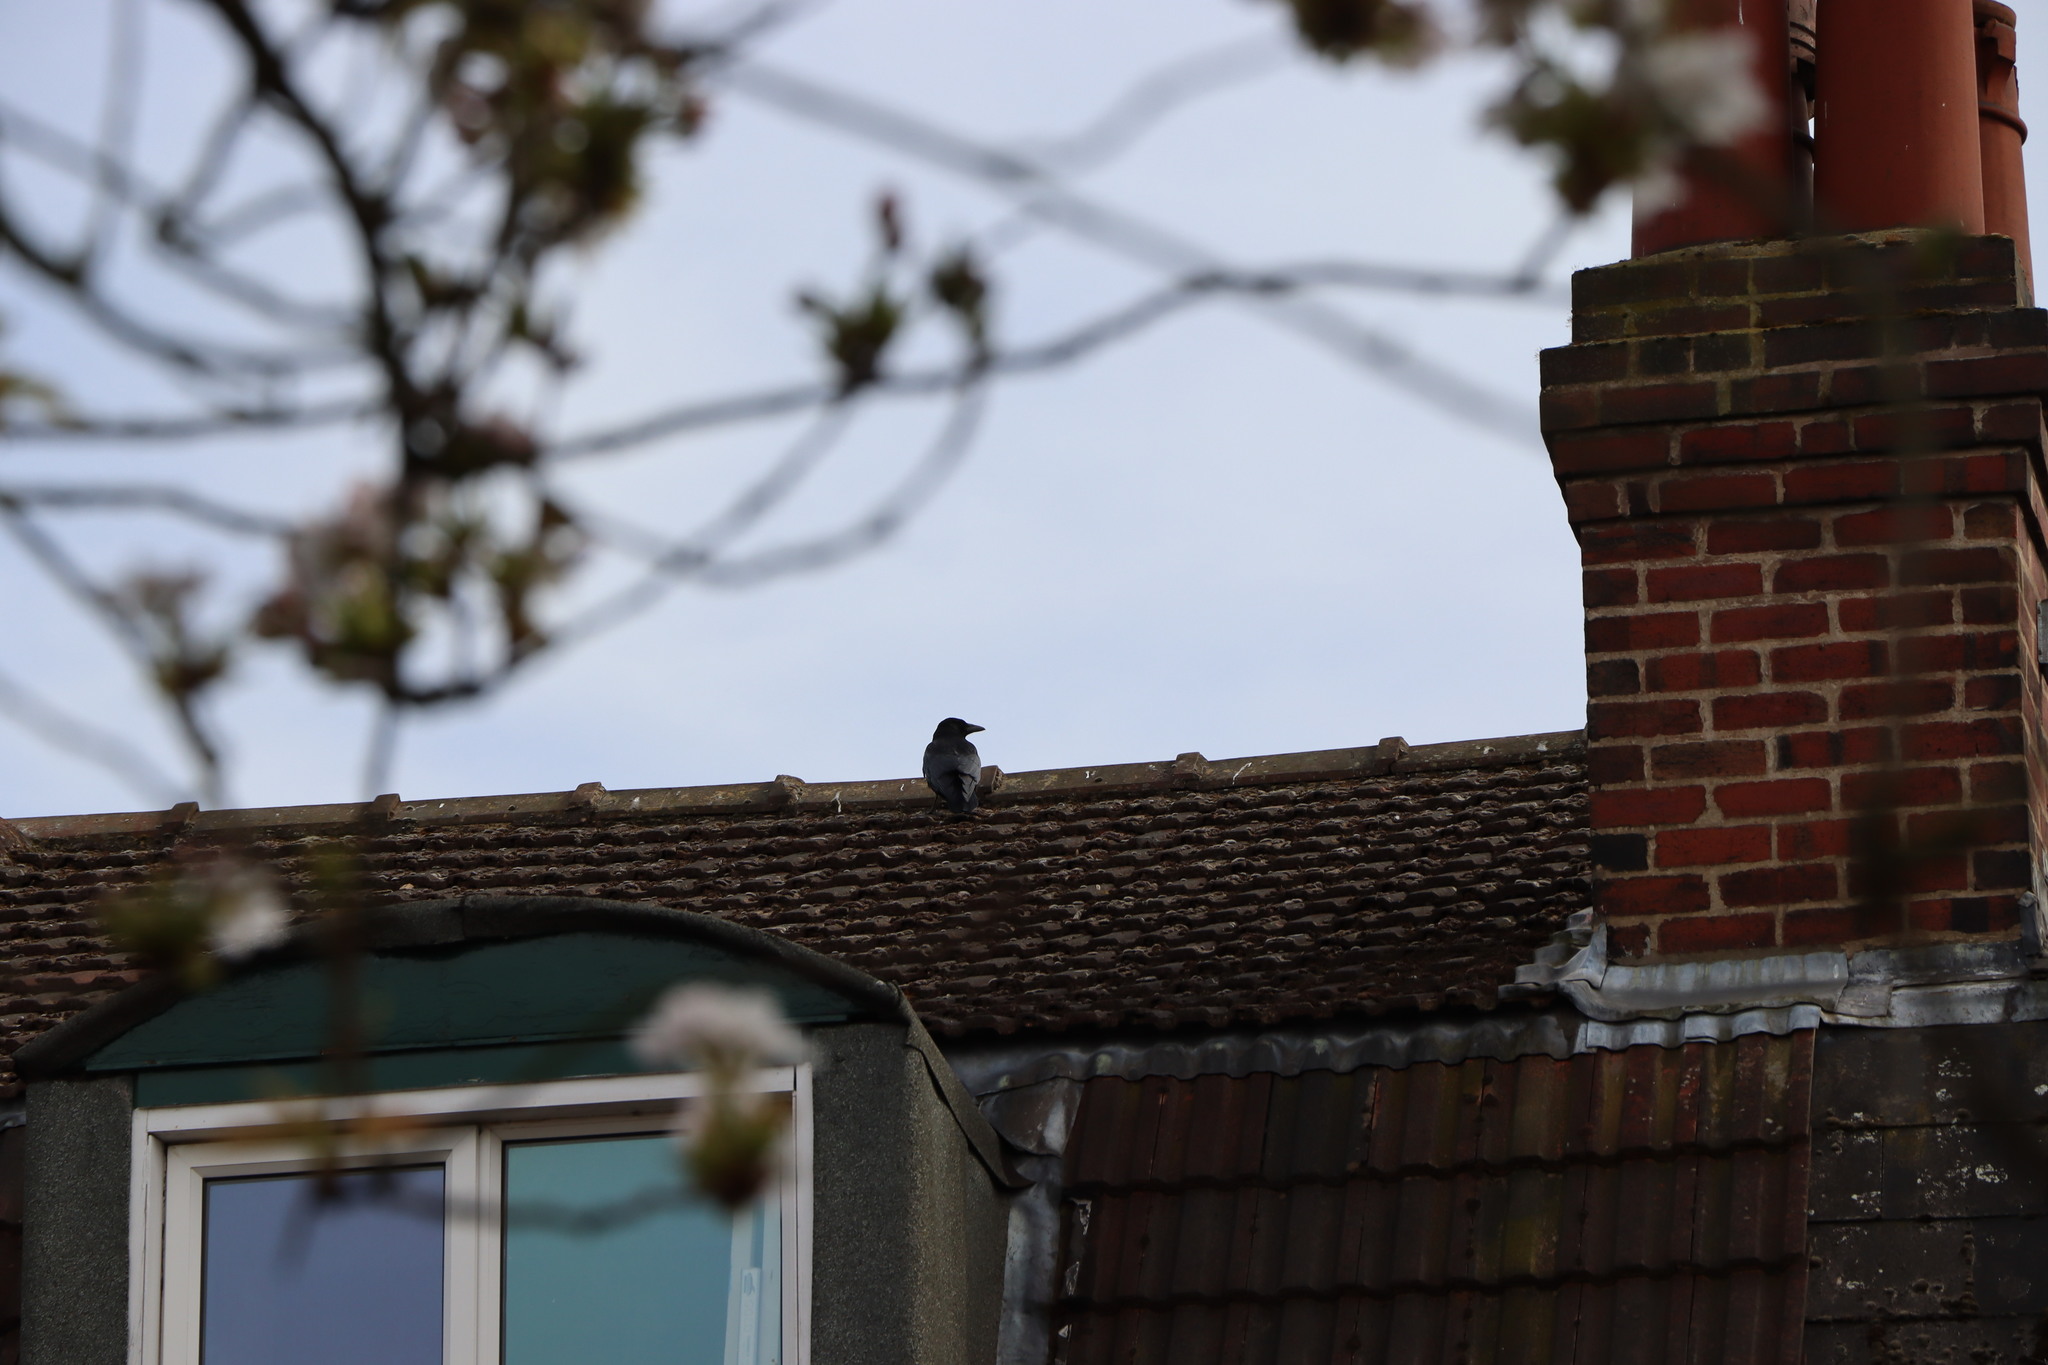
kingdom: Animalia
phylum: Chordata
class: Aves
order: Passeriformes
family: Corvidae
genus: Corvus
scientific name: Corvus corone
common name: Carrion crow
